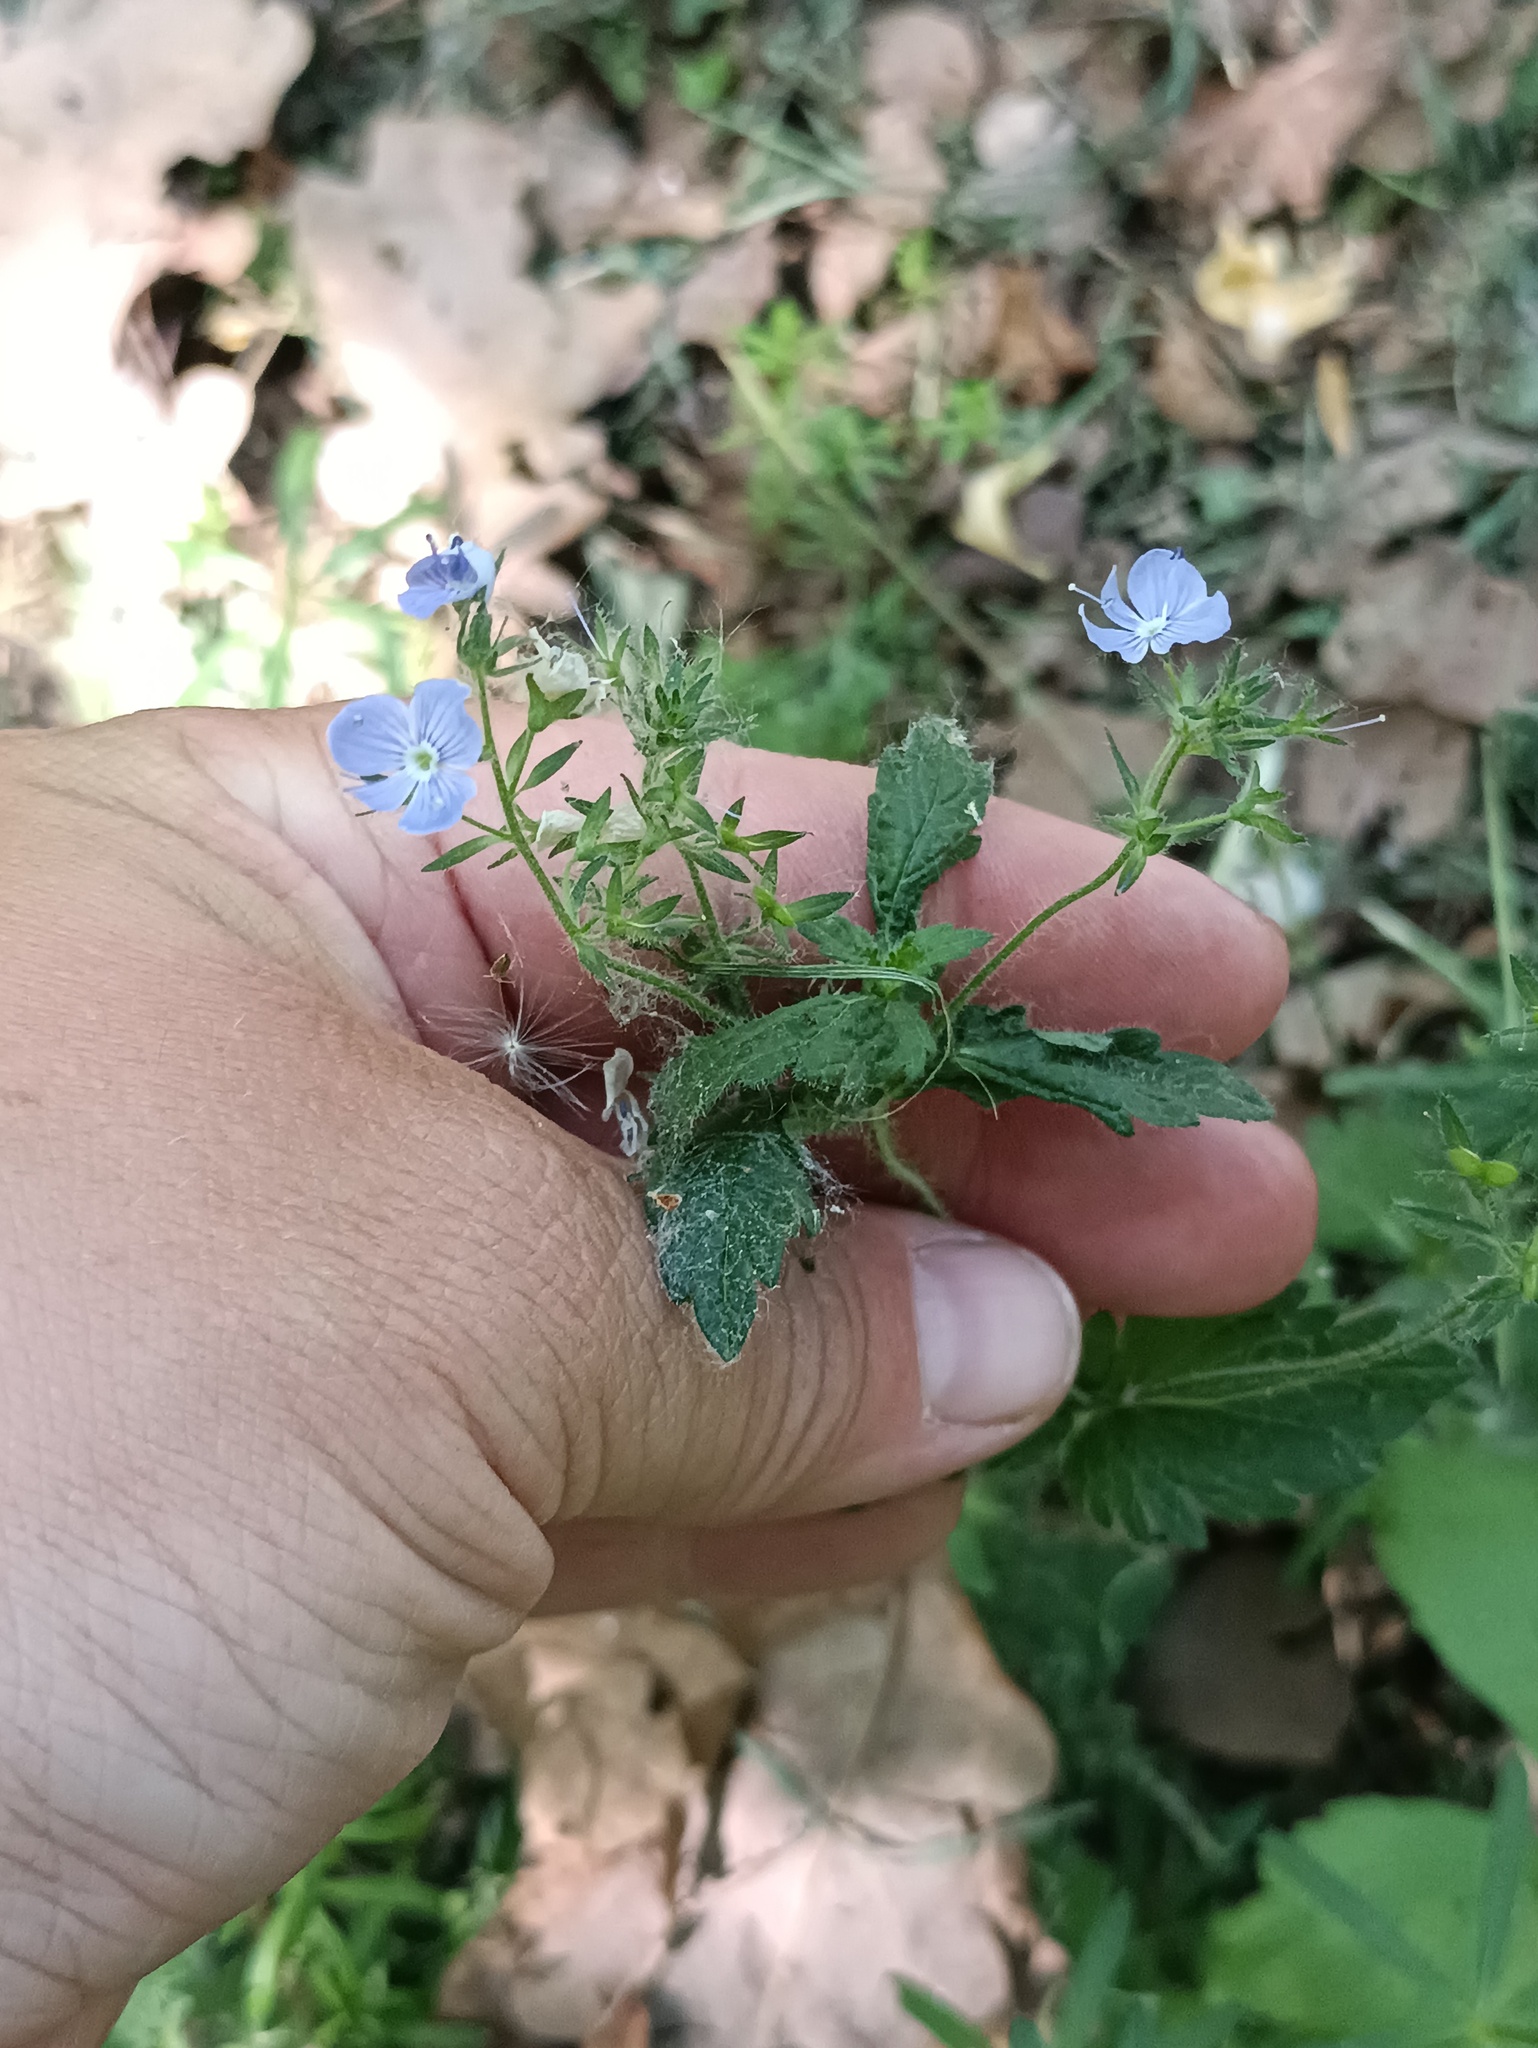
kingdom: Plantae
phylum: Tracheophyta
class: Magnoliopsida
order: Lamiales
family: Plantaginaceae
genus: Veronica
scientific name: Veronica chamaedrys
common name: Germander speedwell
